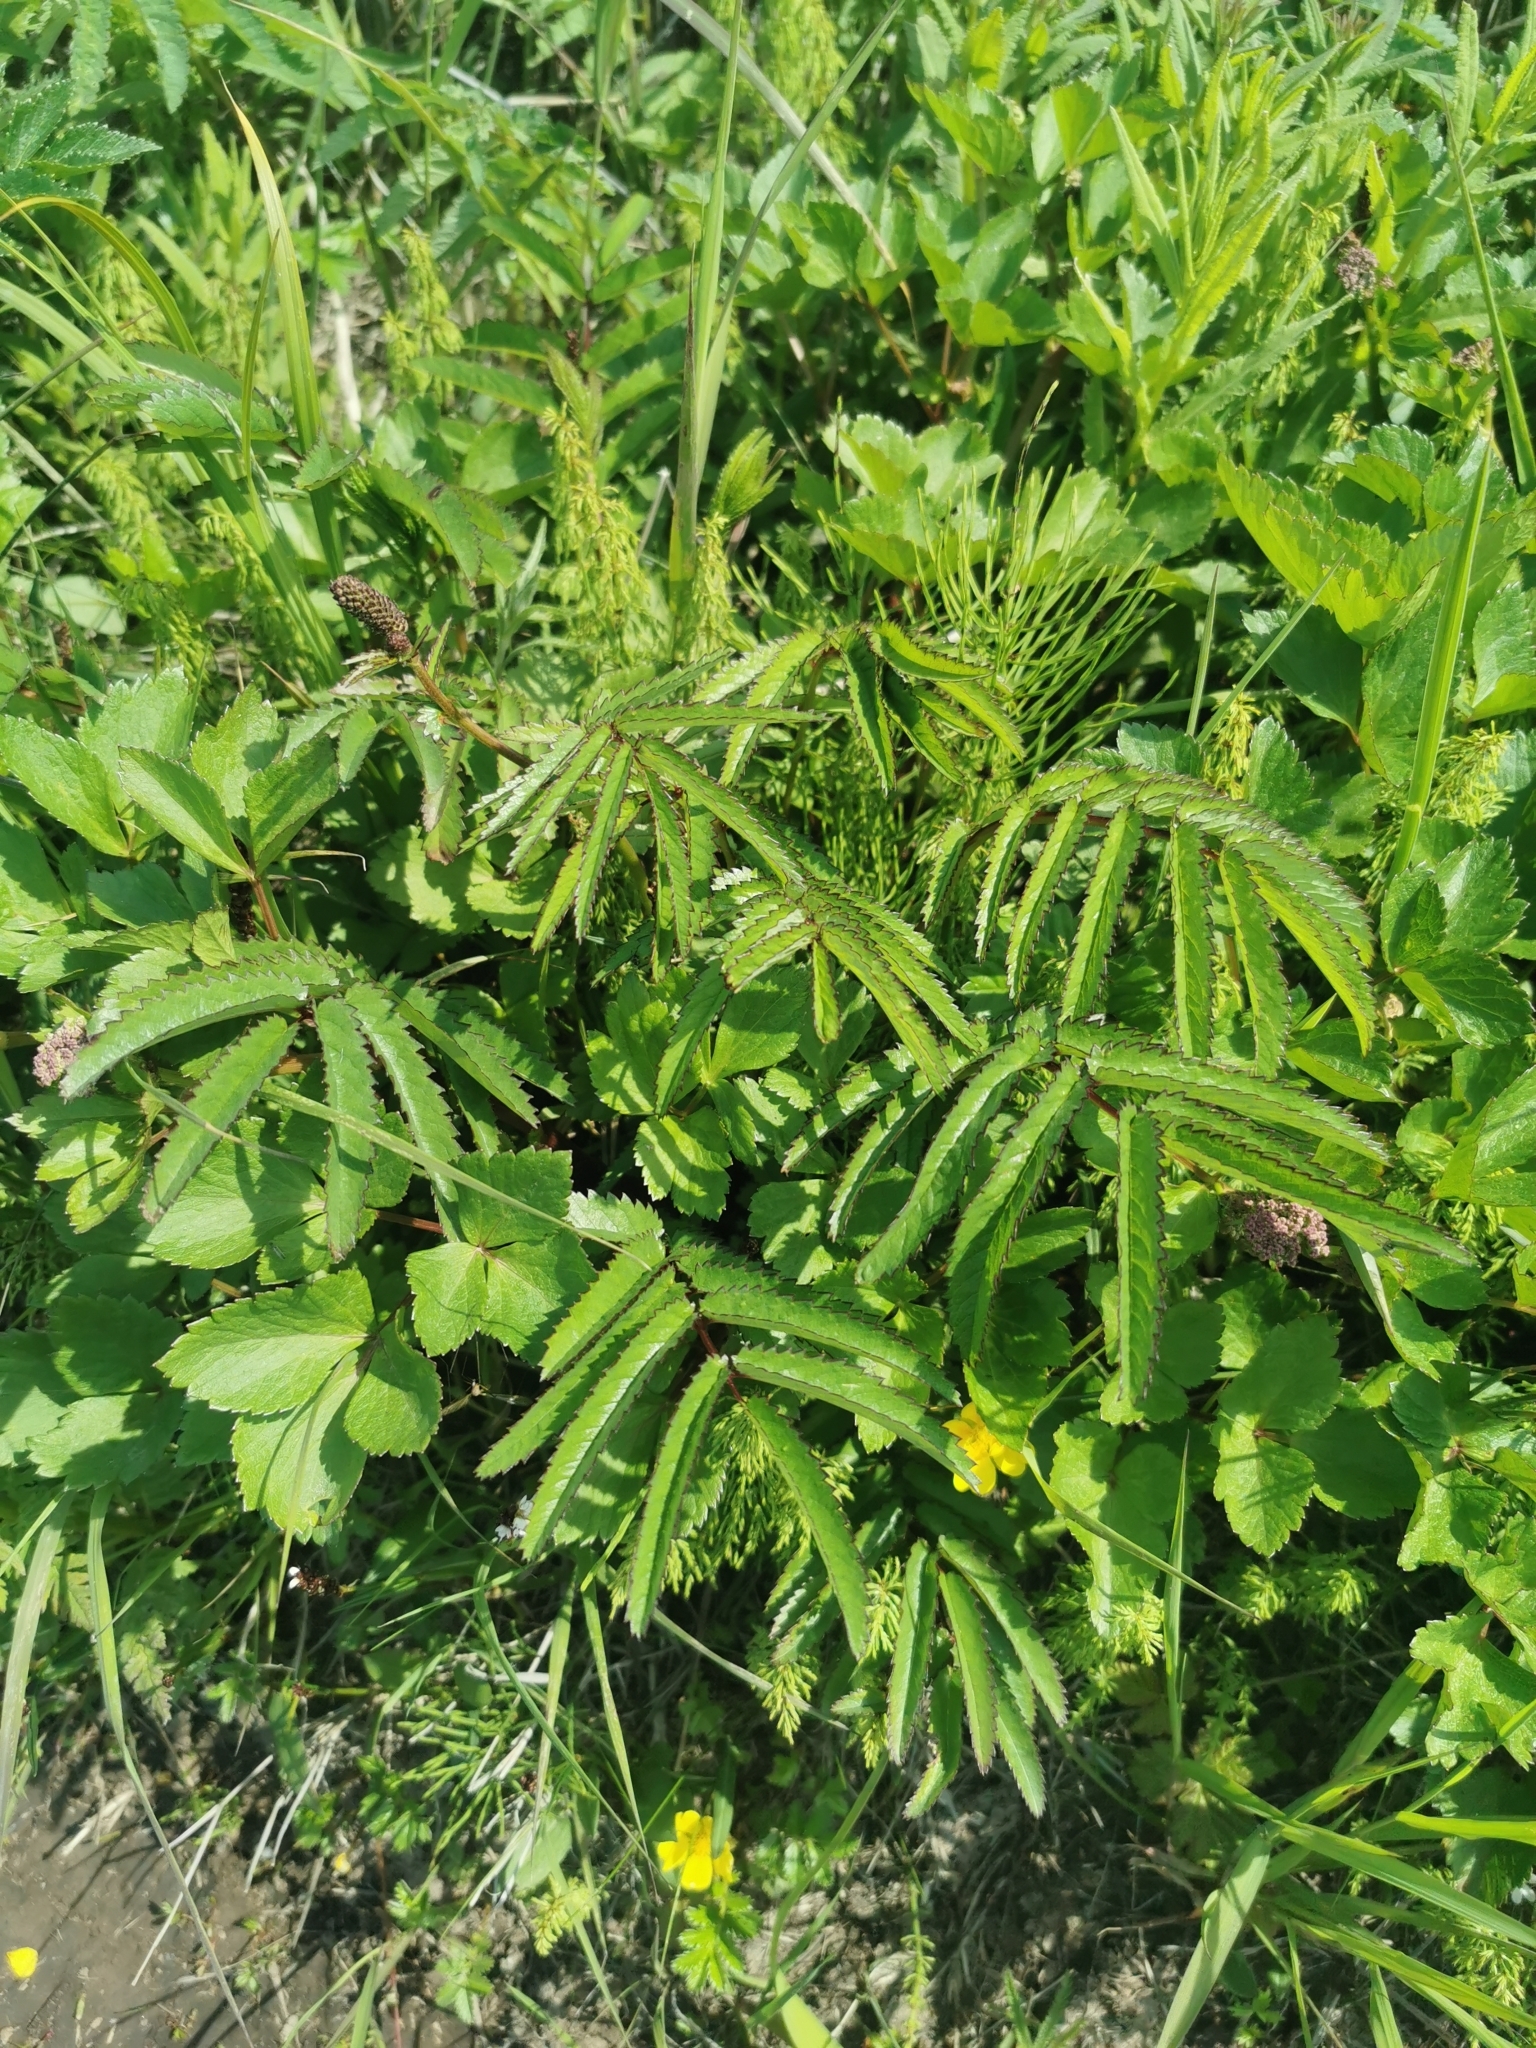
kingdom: Plantae
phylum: Tracheophyta
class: Magnoliopsida
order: Rosales
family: Rosaceae
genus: Poterium
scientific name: Poterium tenuifolium
